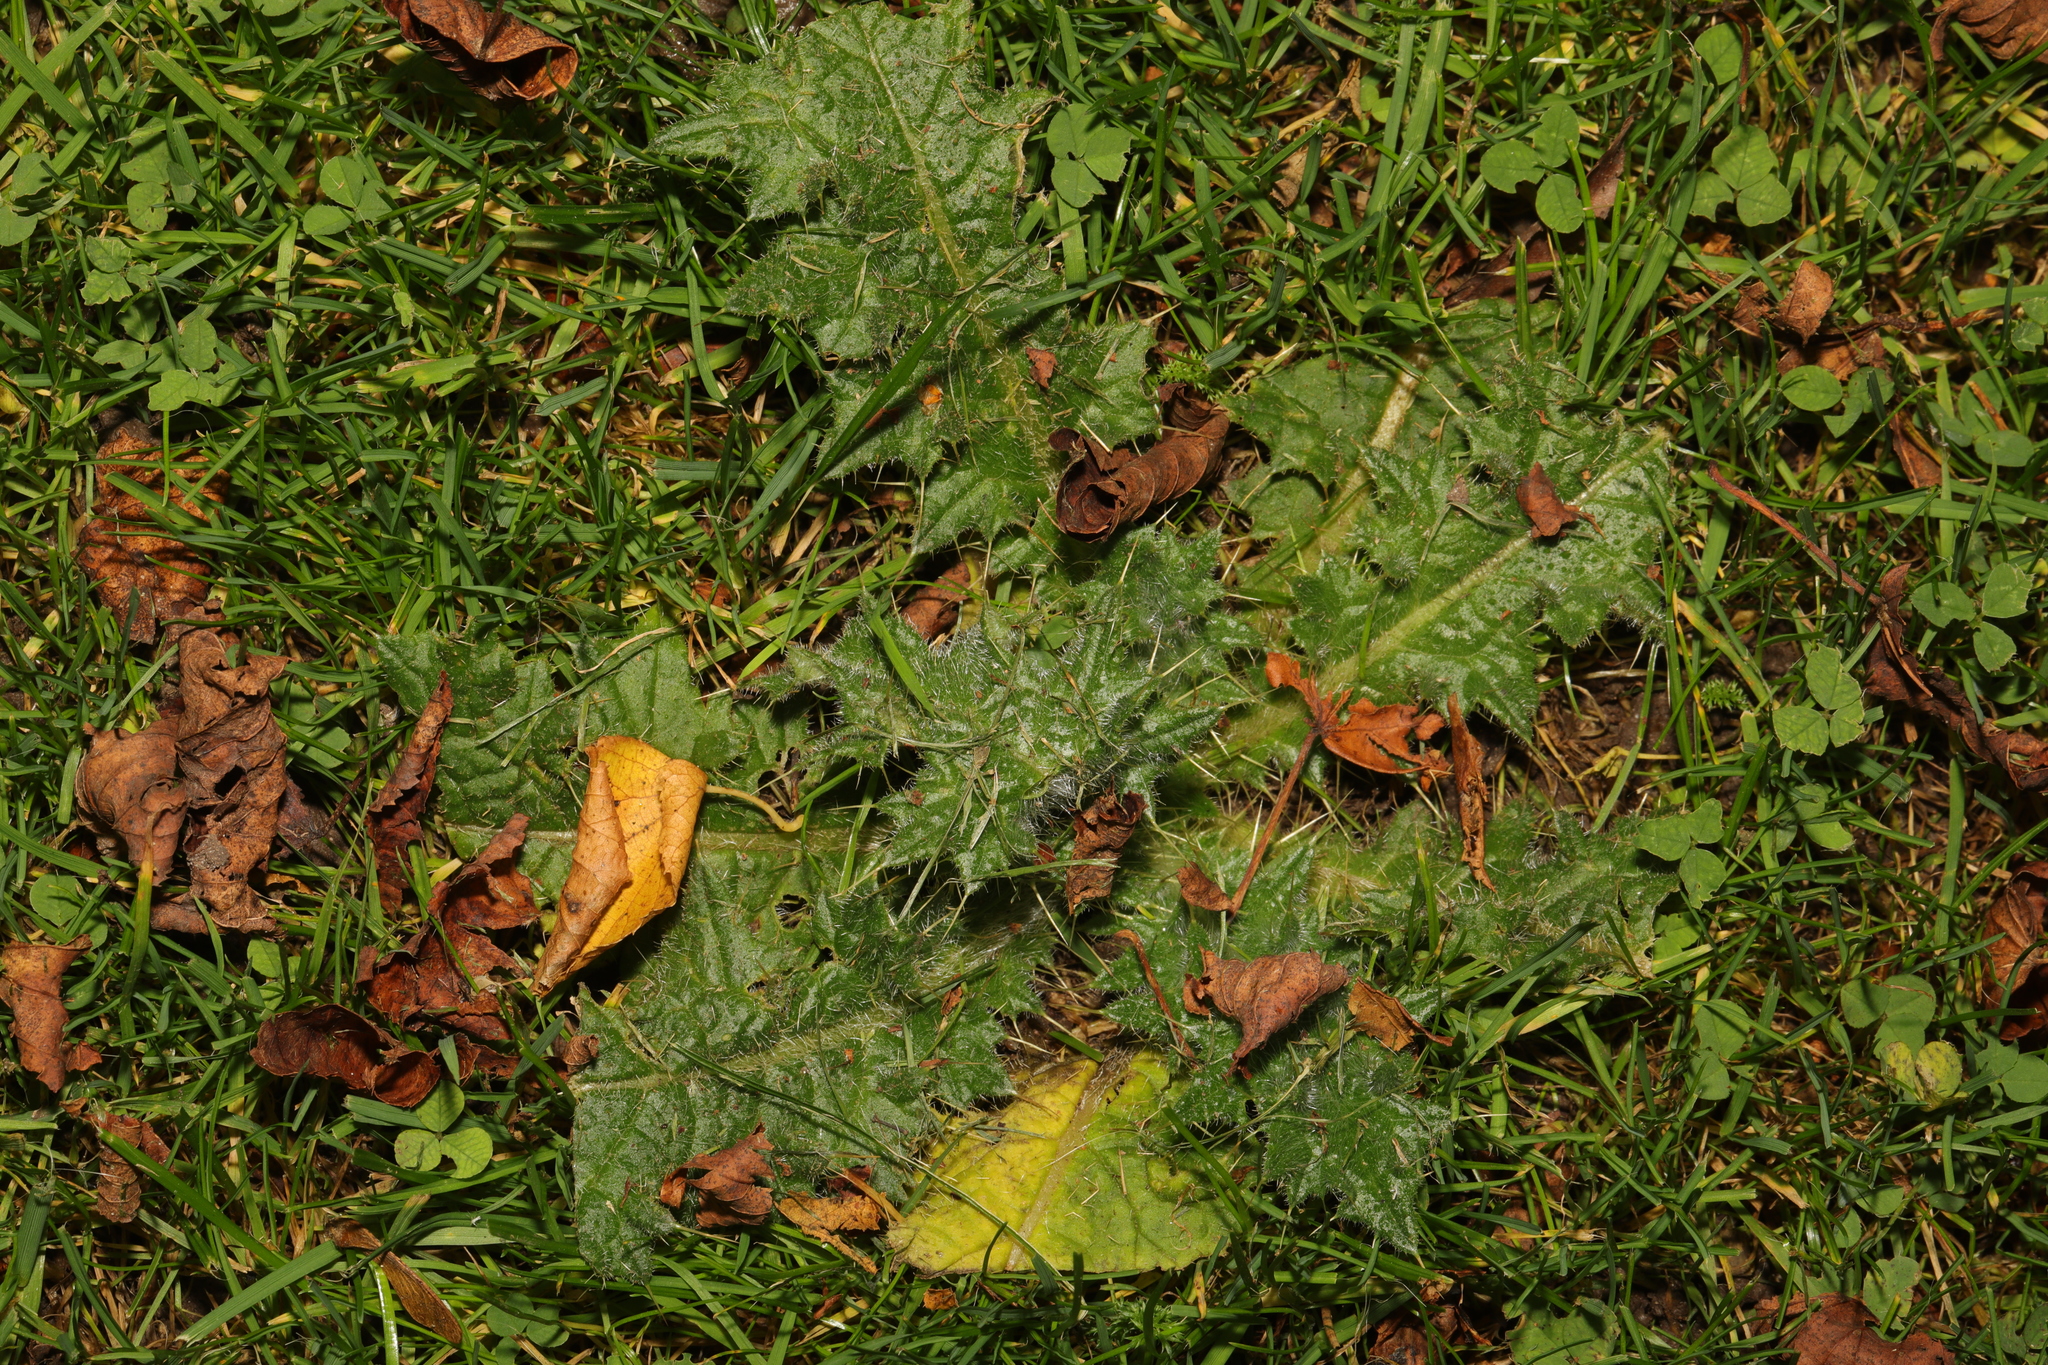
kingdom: Plantae
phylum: Tracheophyta
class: Magnoliopsida
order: Asterales
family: Asteraceae
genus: Cirsium
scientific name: Cirsium vulgare
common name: Bull thistle
